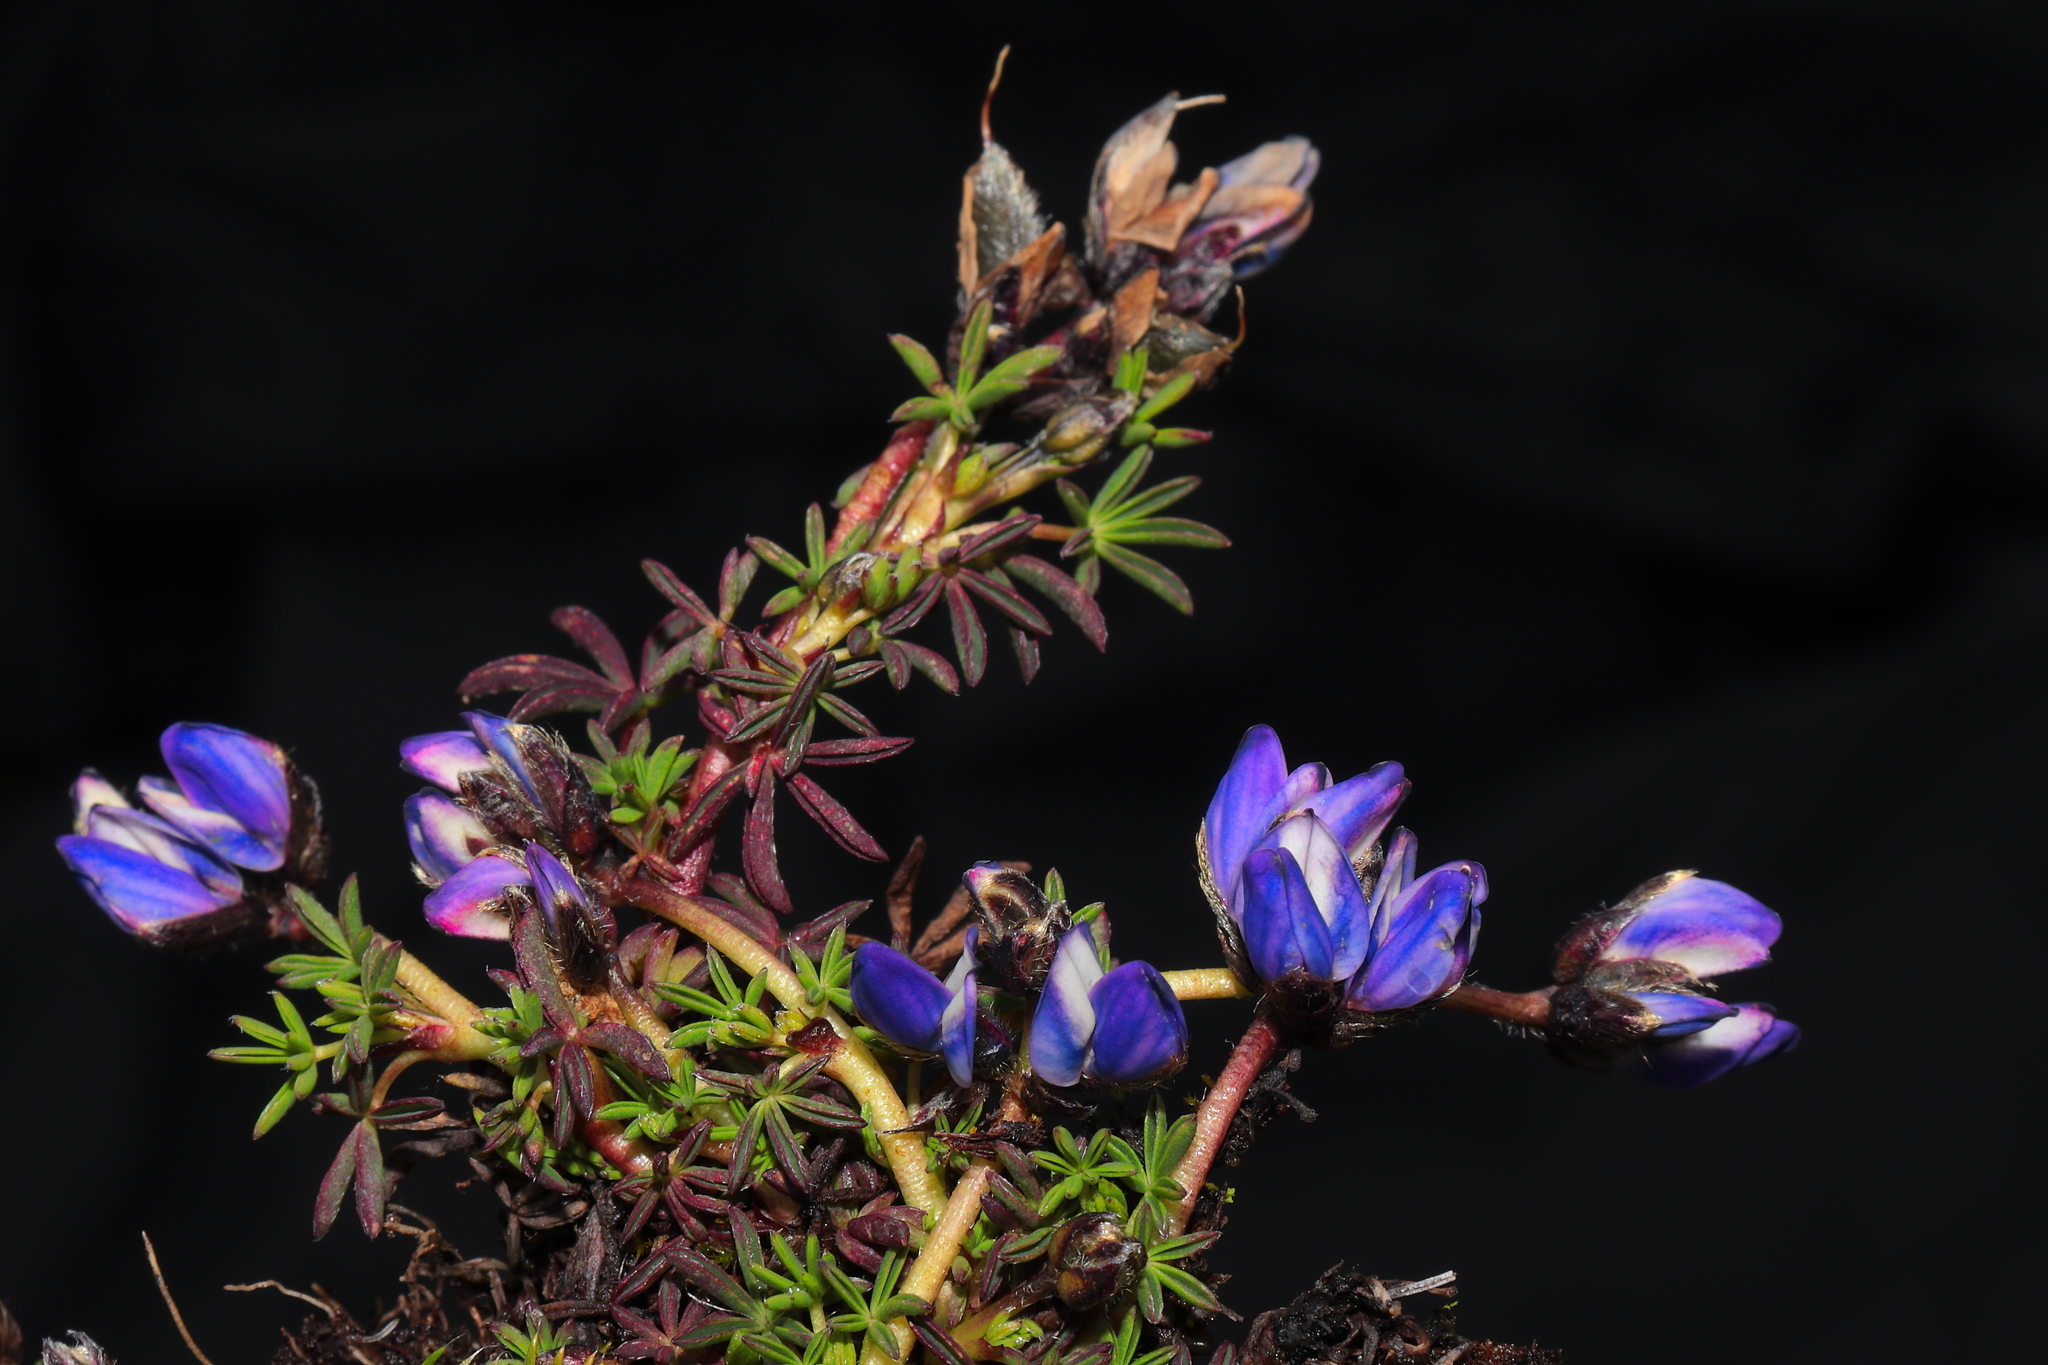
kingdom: Plantae
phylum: Tracheophyta
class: Magnoliopsida
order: Fabales
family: Fabaceae
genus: Lupinus
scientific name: Lupinus microphyllus
